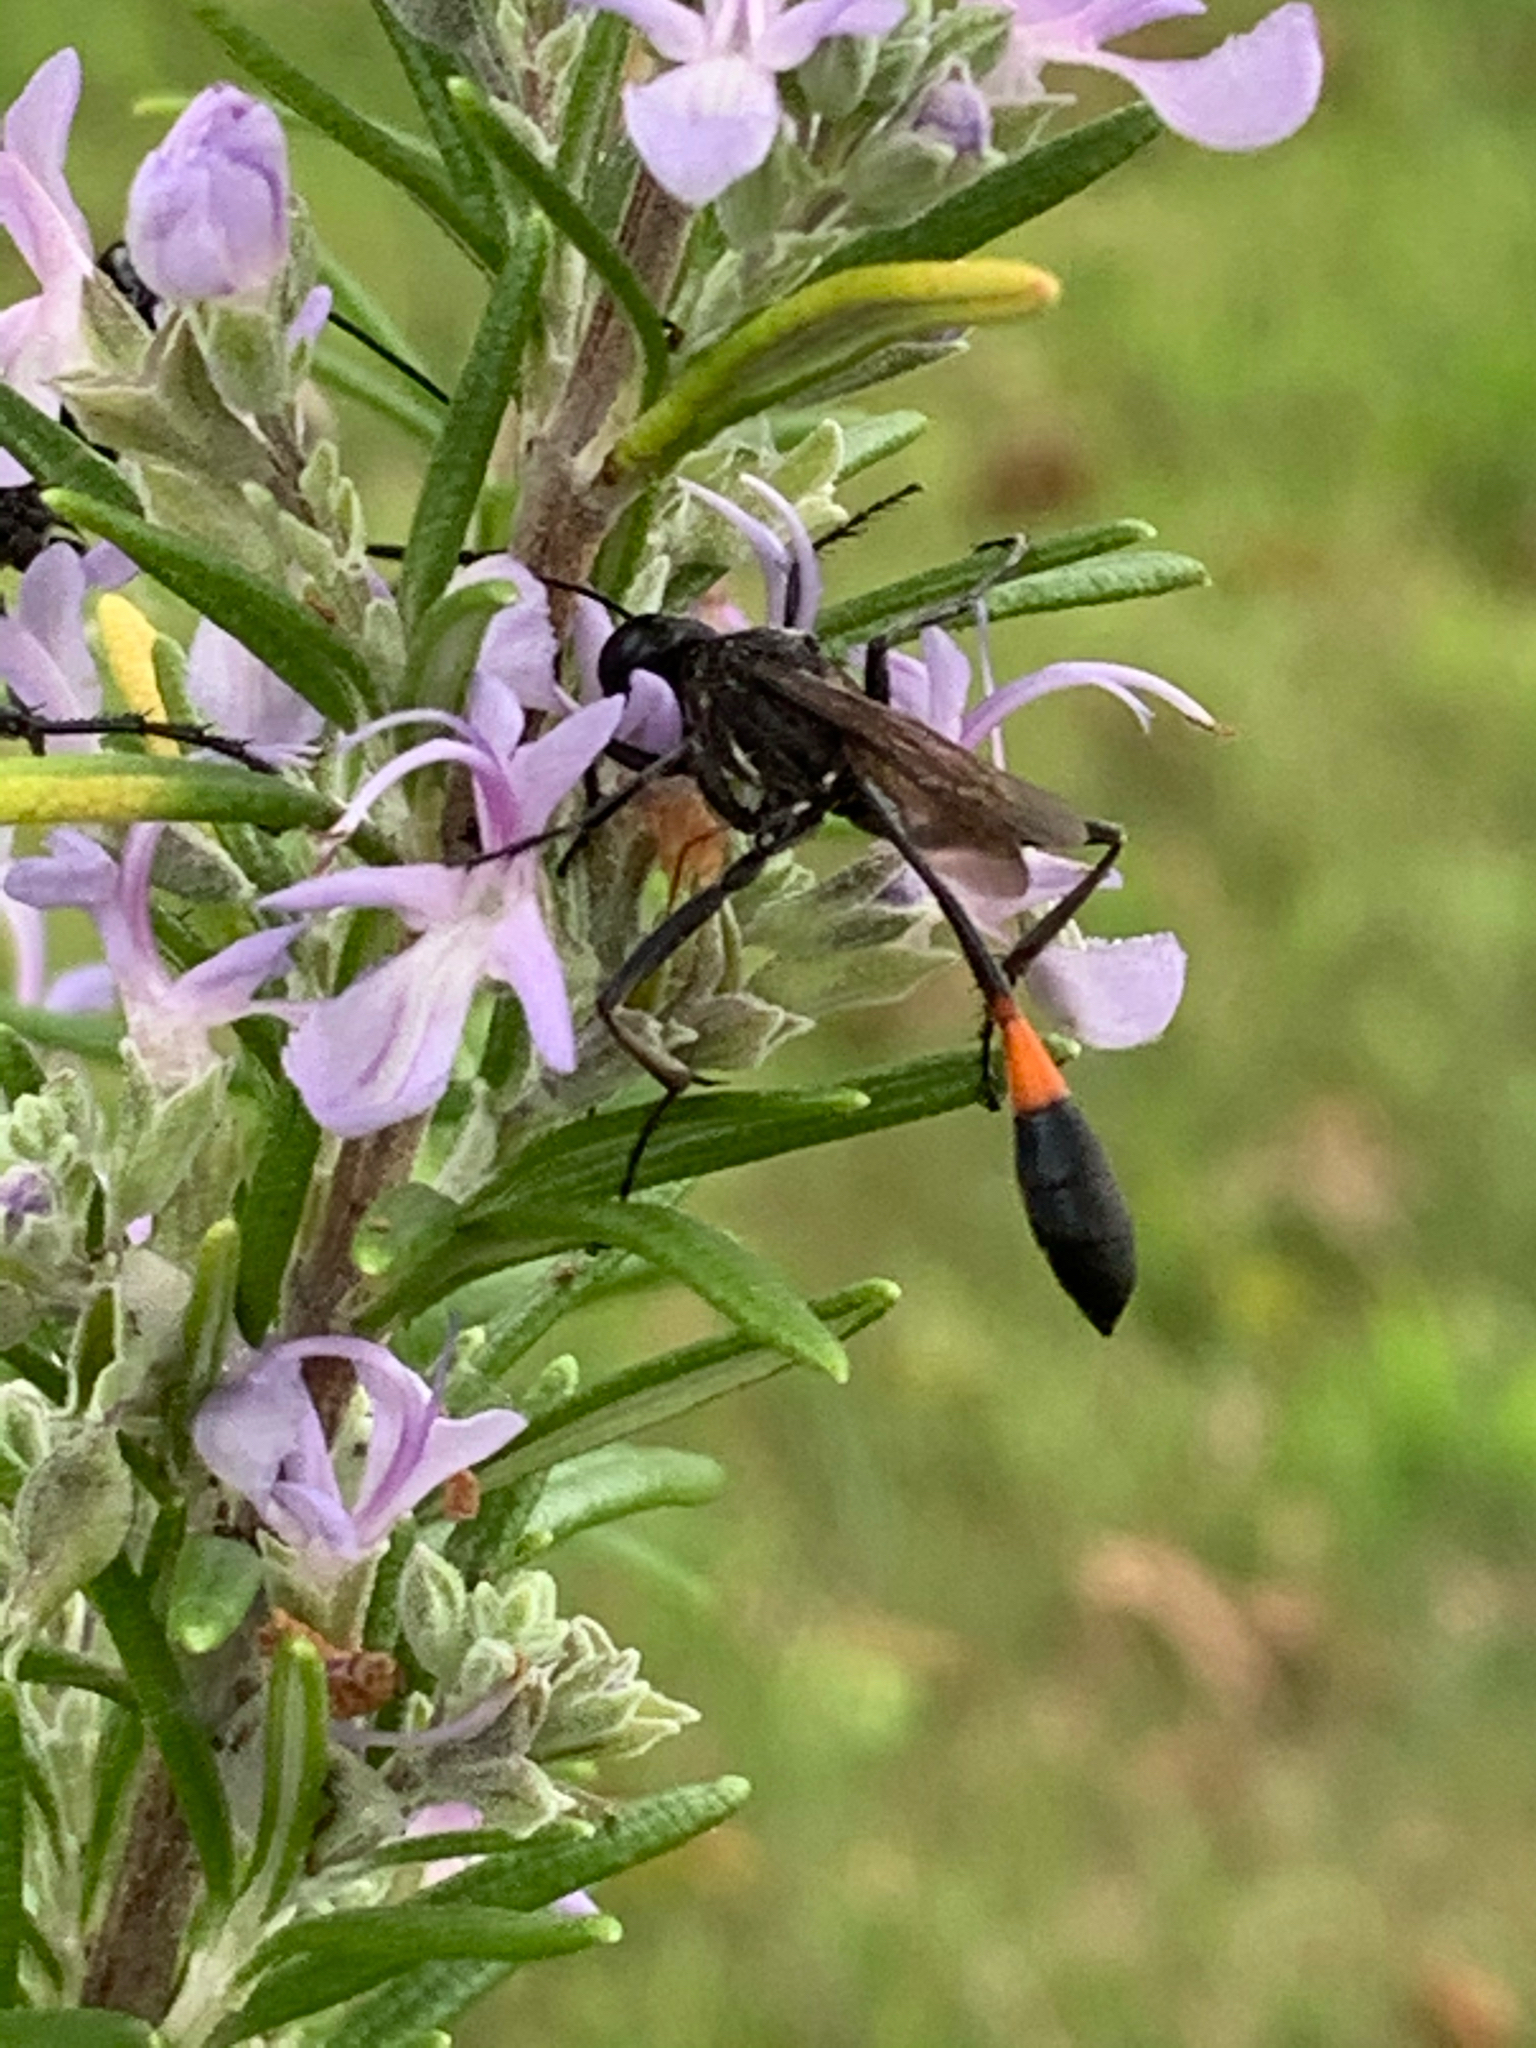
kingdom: Animalia
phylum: Arthropoda
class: Insecta
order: Hymenoptera
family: Sphecidae
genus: Ammophila
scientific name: Ammophila
